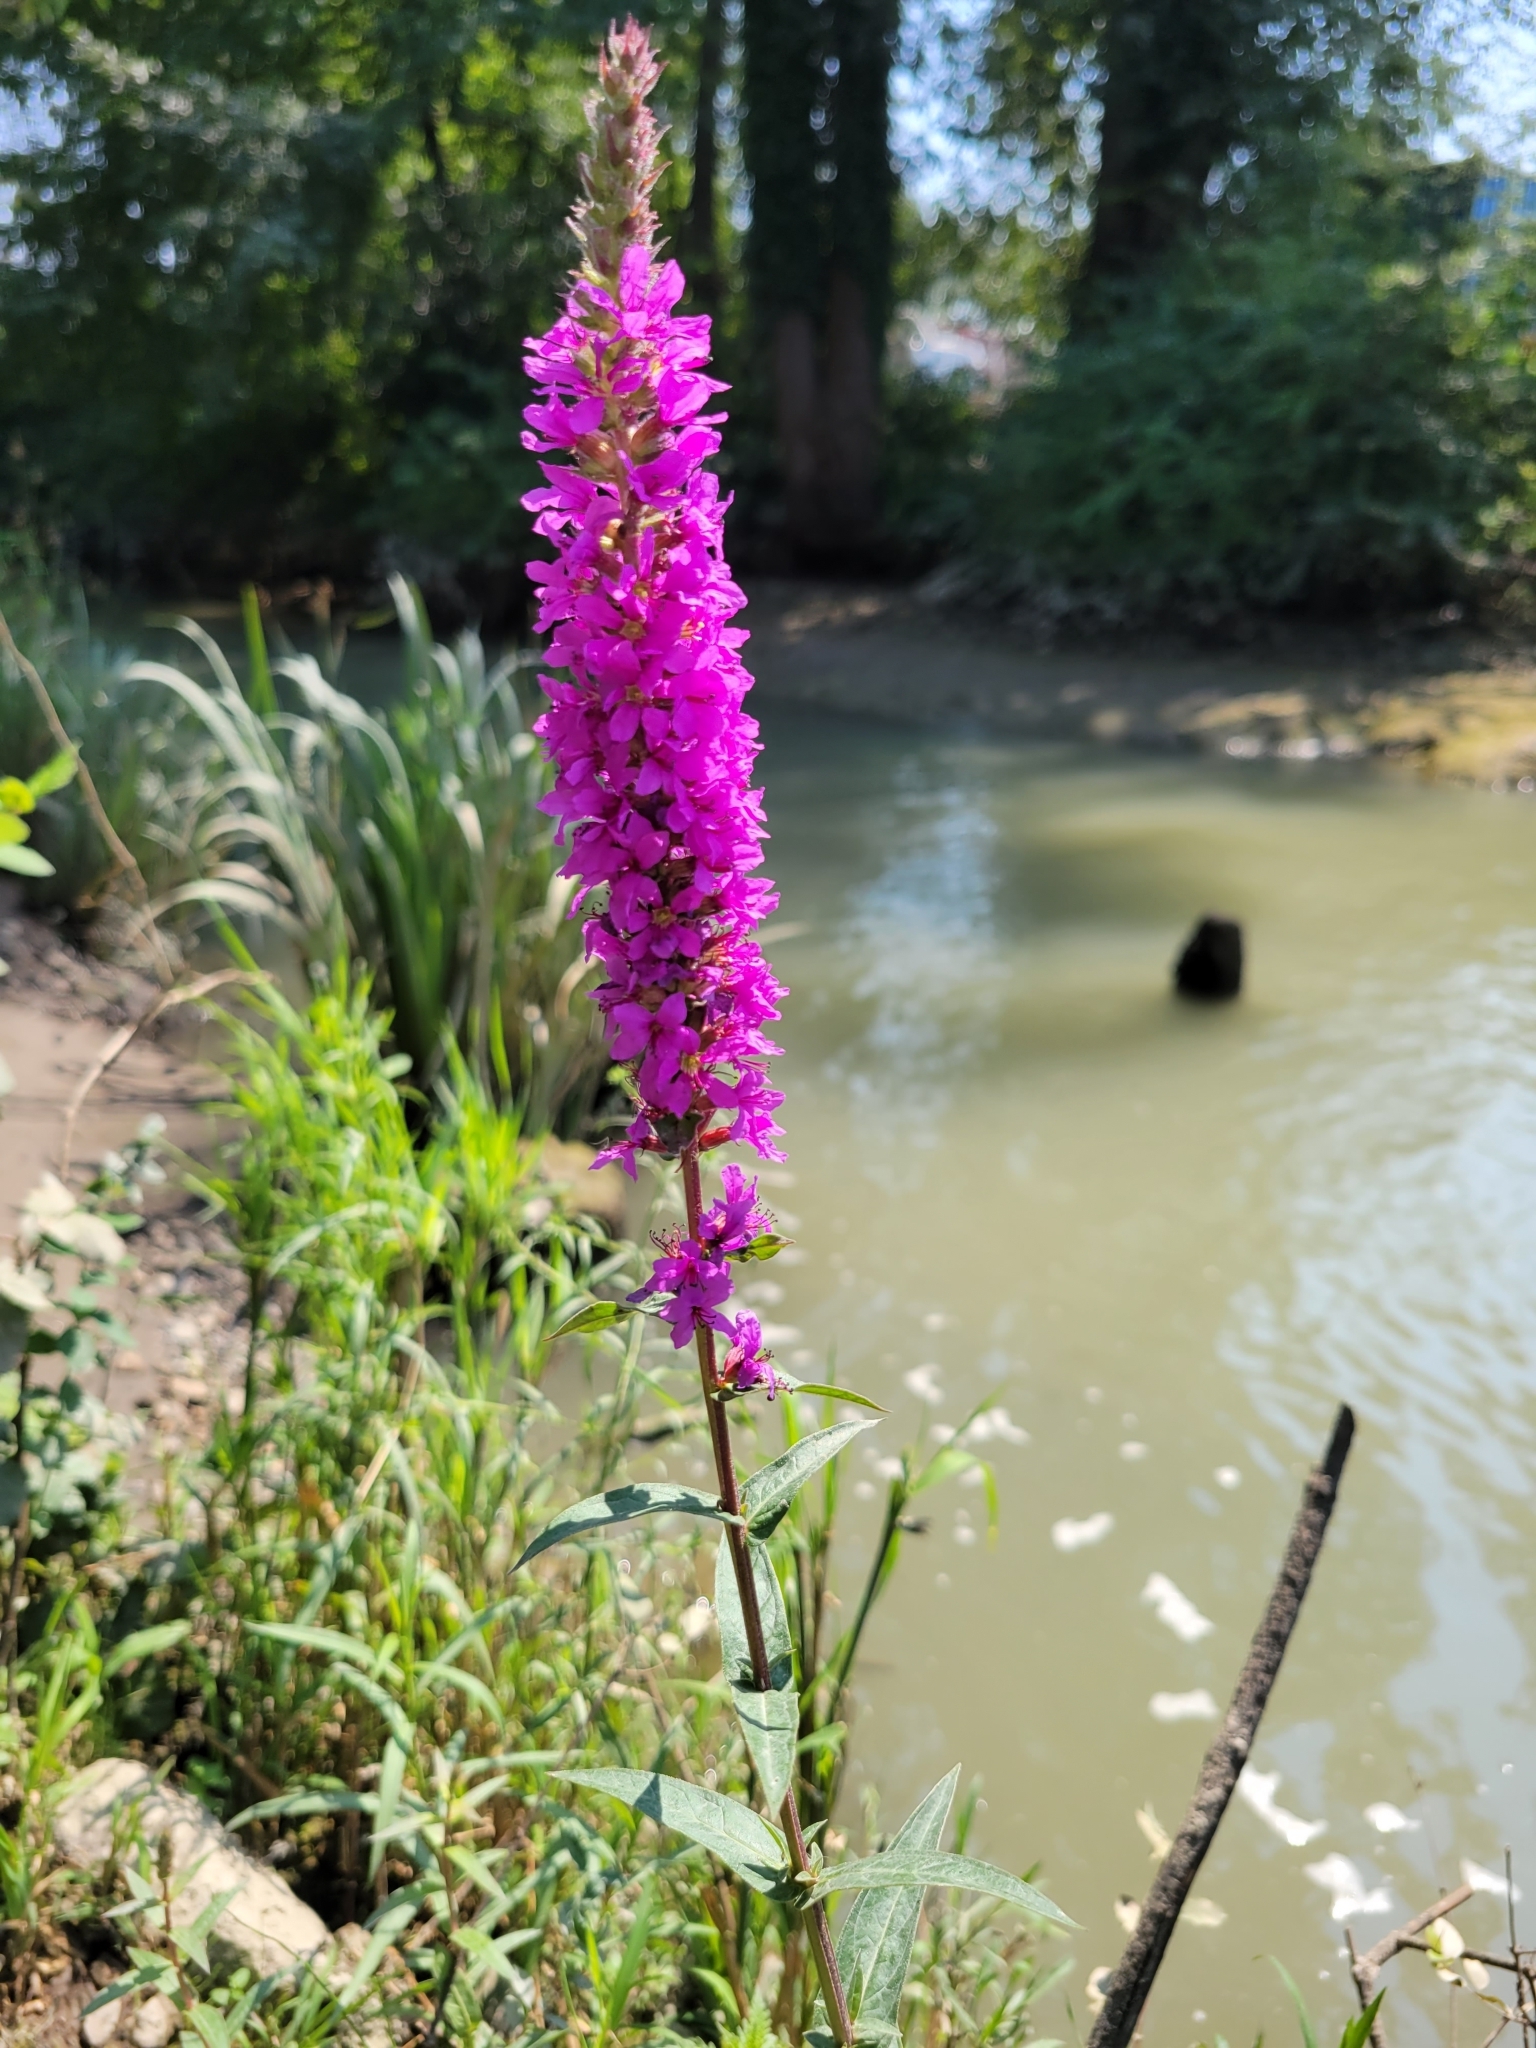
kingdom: Plantae
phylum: Tracheophyta
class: Magnoliopsida
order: Myrtales
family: Lythraceae
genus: Lythrum
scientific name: Lythrum salicaria
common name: Purple loosestrife
